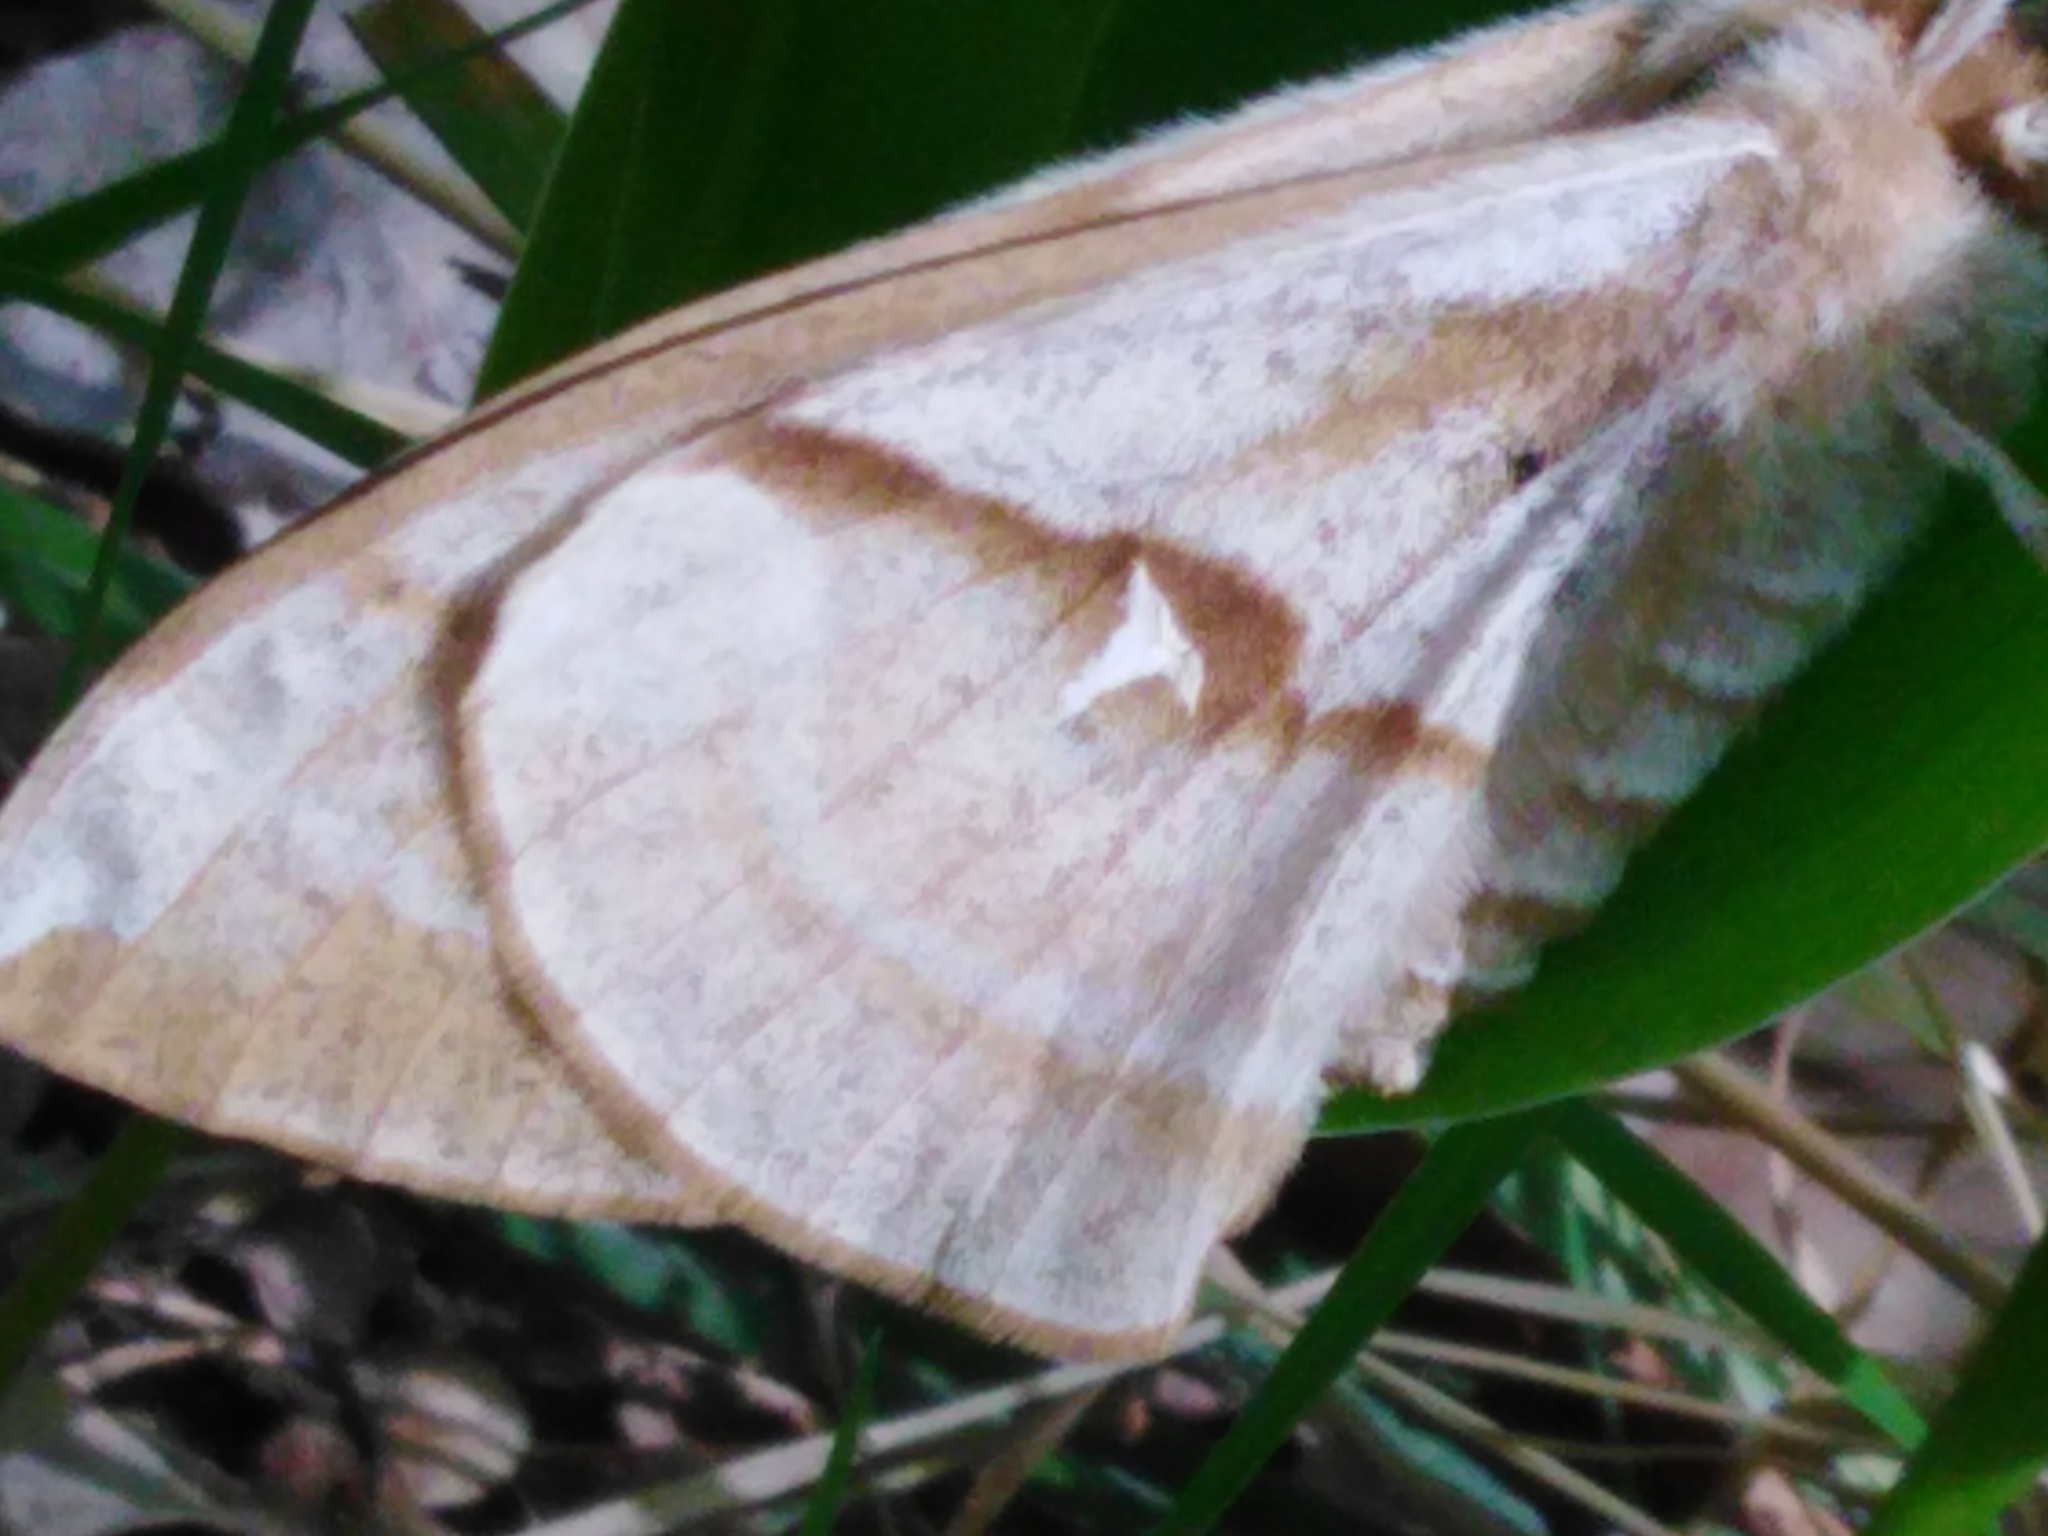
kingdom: Animalia
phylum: Arthropoda
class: Insecta
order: Lepidoptera
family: Saturniidae
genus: Aglia
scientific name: Aglia tau
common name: Tau emperor
